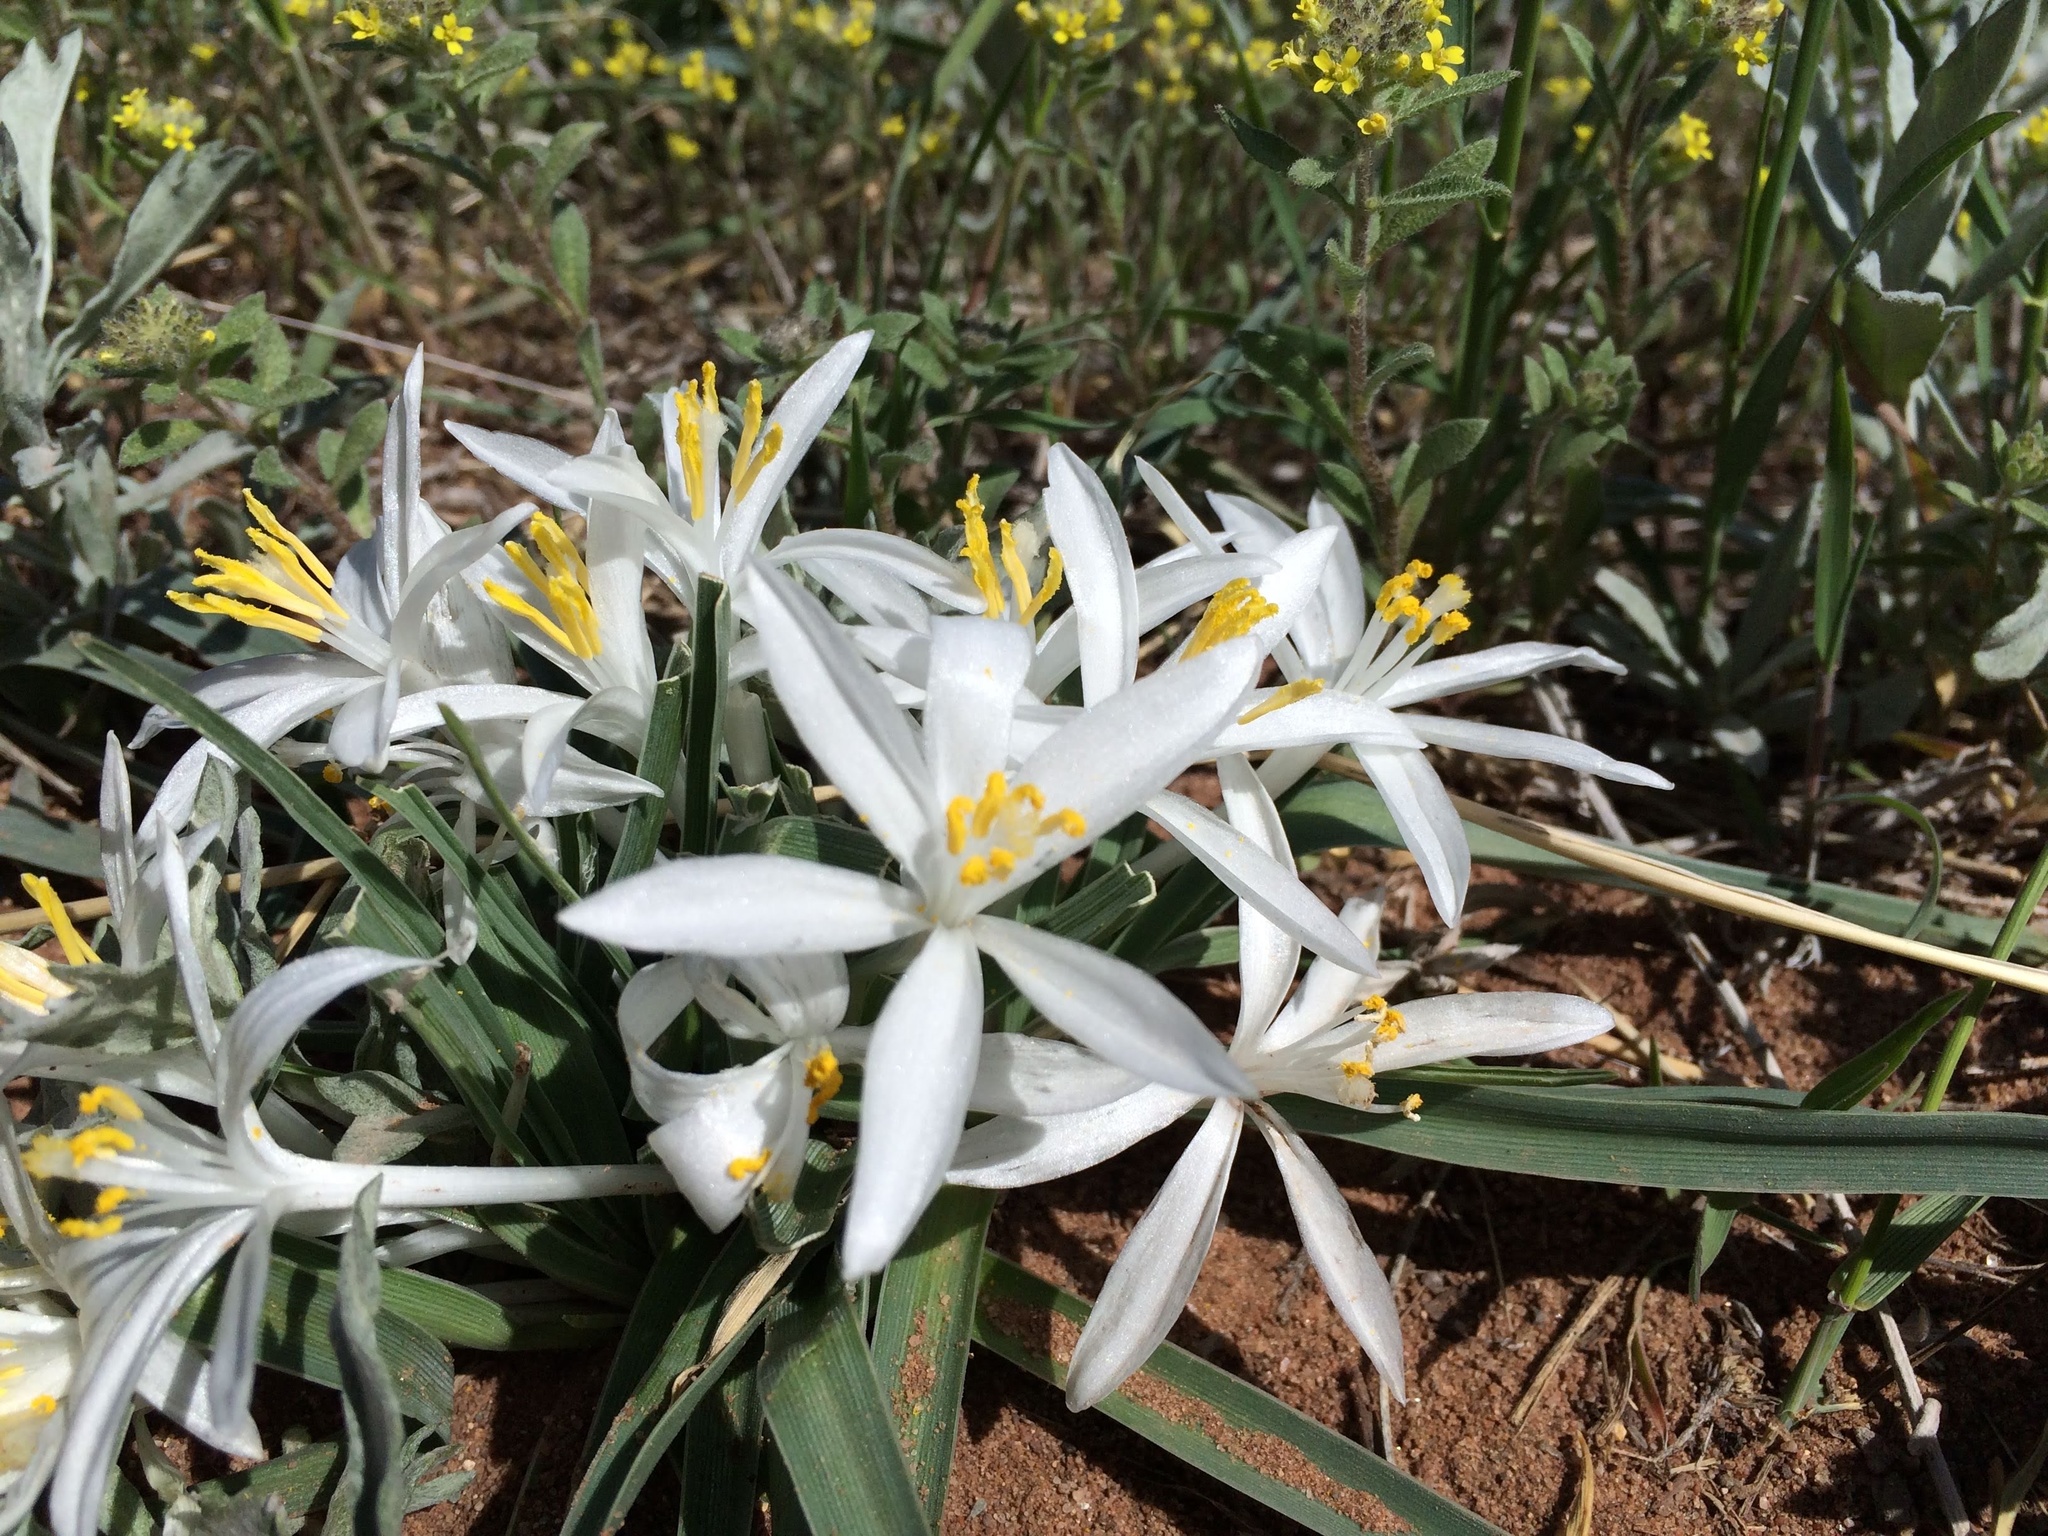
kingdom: Plantae
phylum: Tracheophyta
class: Liliopsida
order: Asparagales
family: Asparagaceae
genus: Leucocrinum
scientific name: Leucocrinum montanum
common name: Mountain-lily
